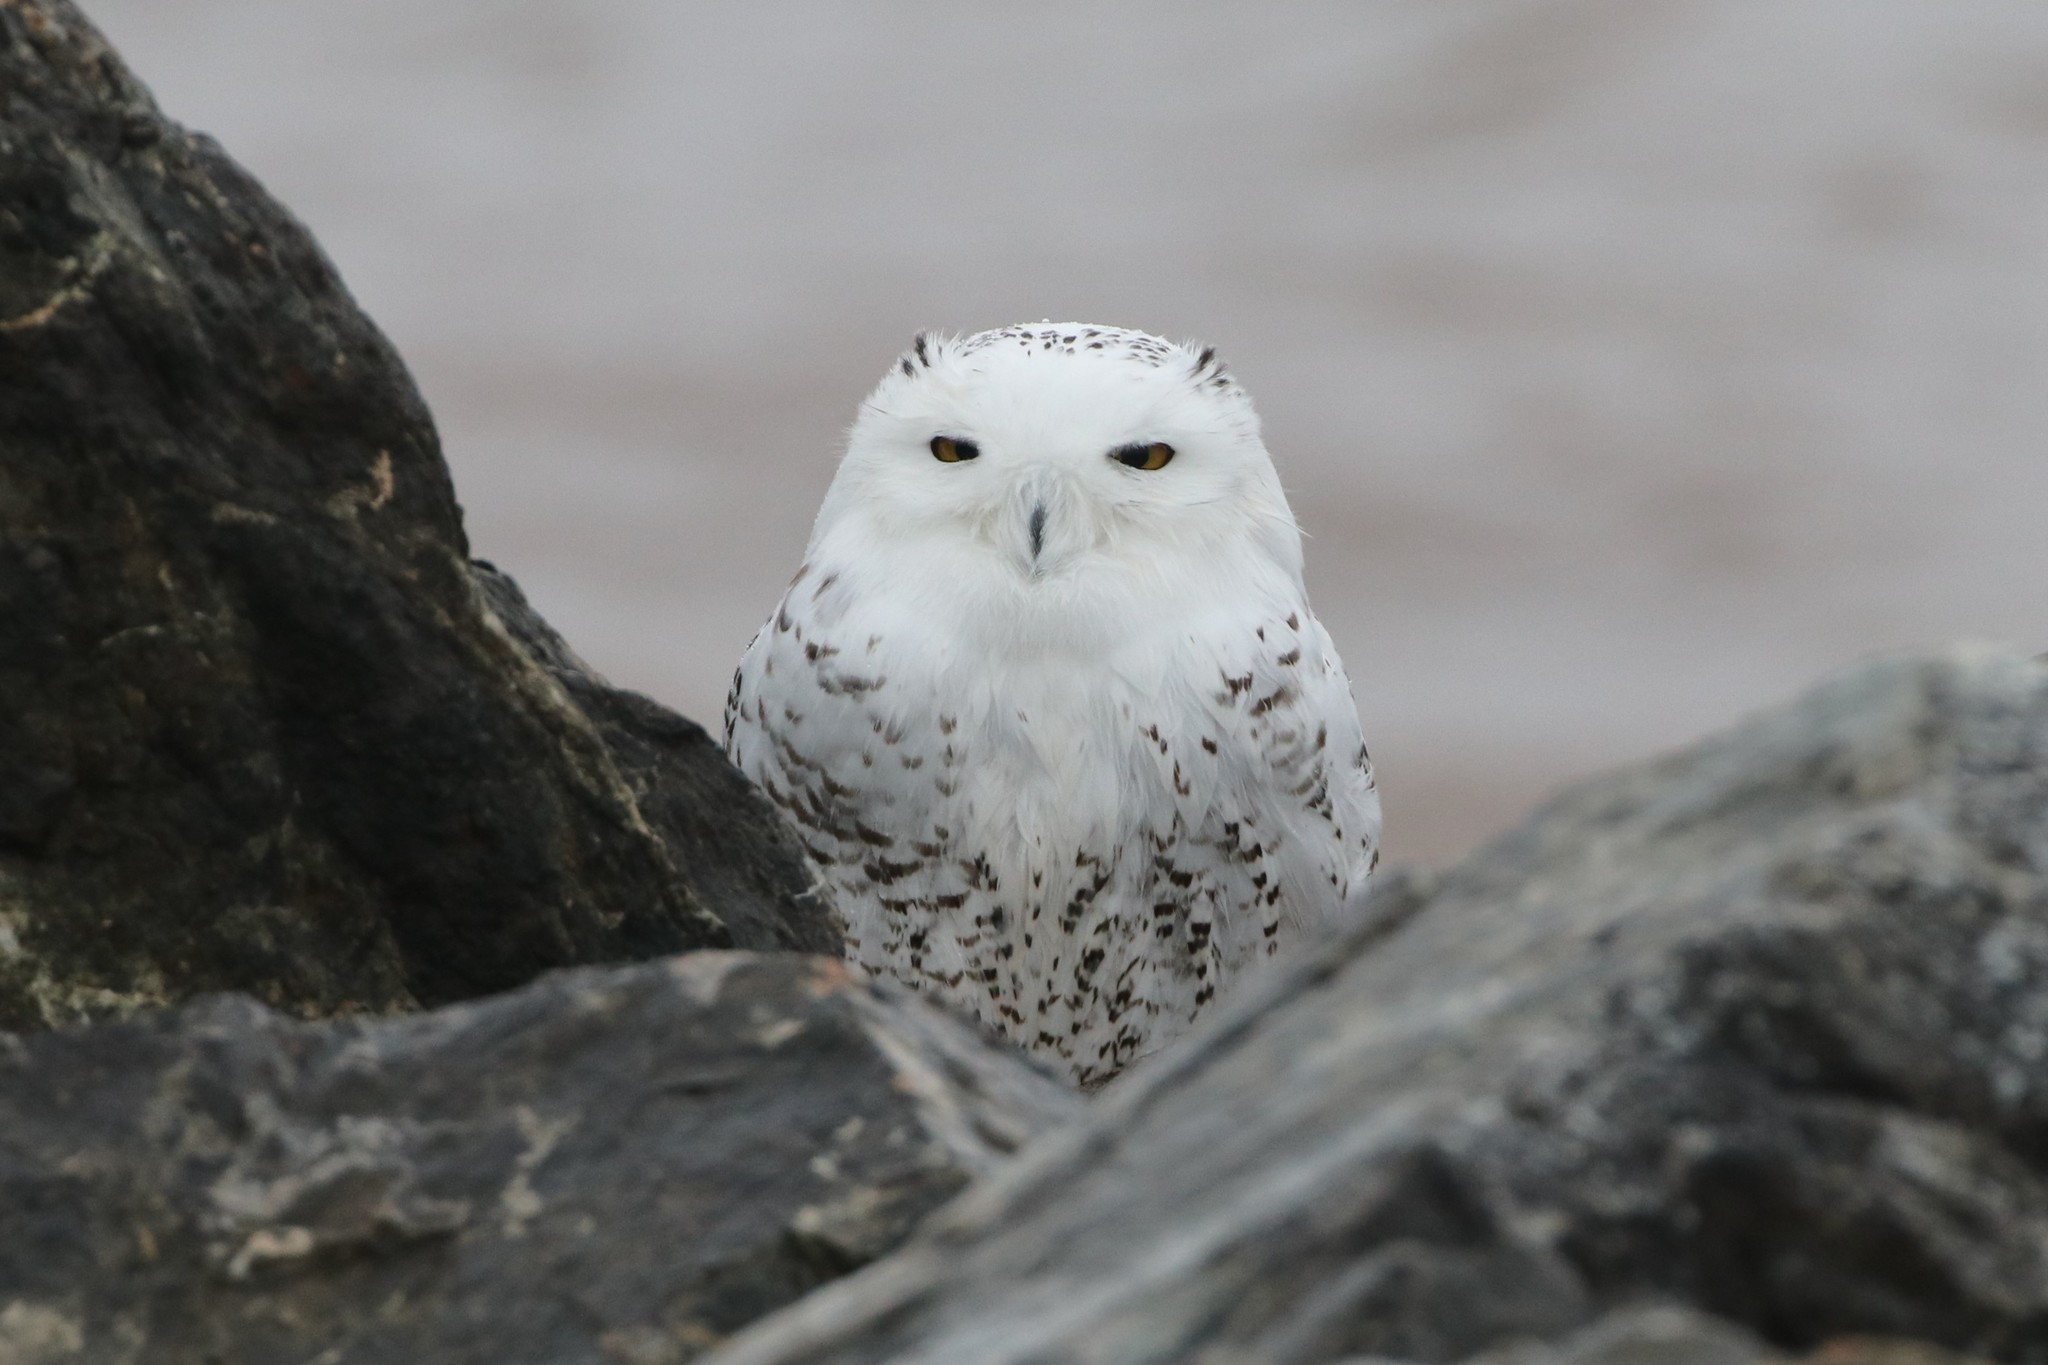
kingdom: Animalia
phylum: Chordata
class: Aves
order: Strigiformes
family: Strigidae
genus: Bubo
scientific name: Bubo scandiacus
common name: Snowy owl
